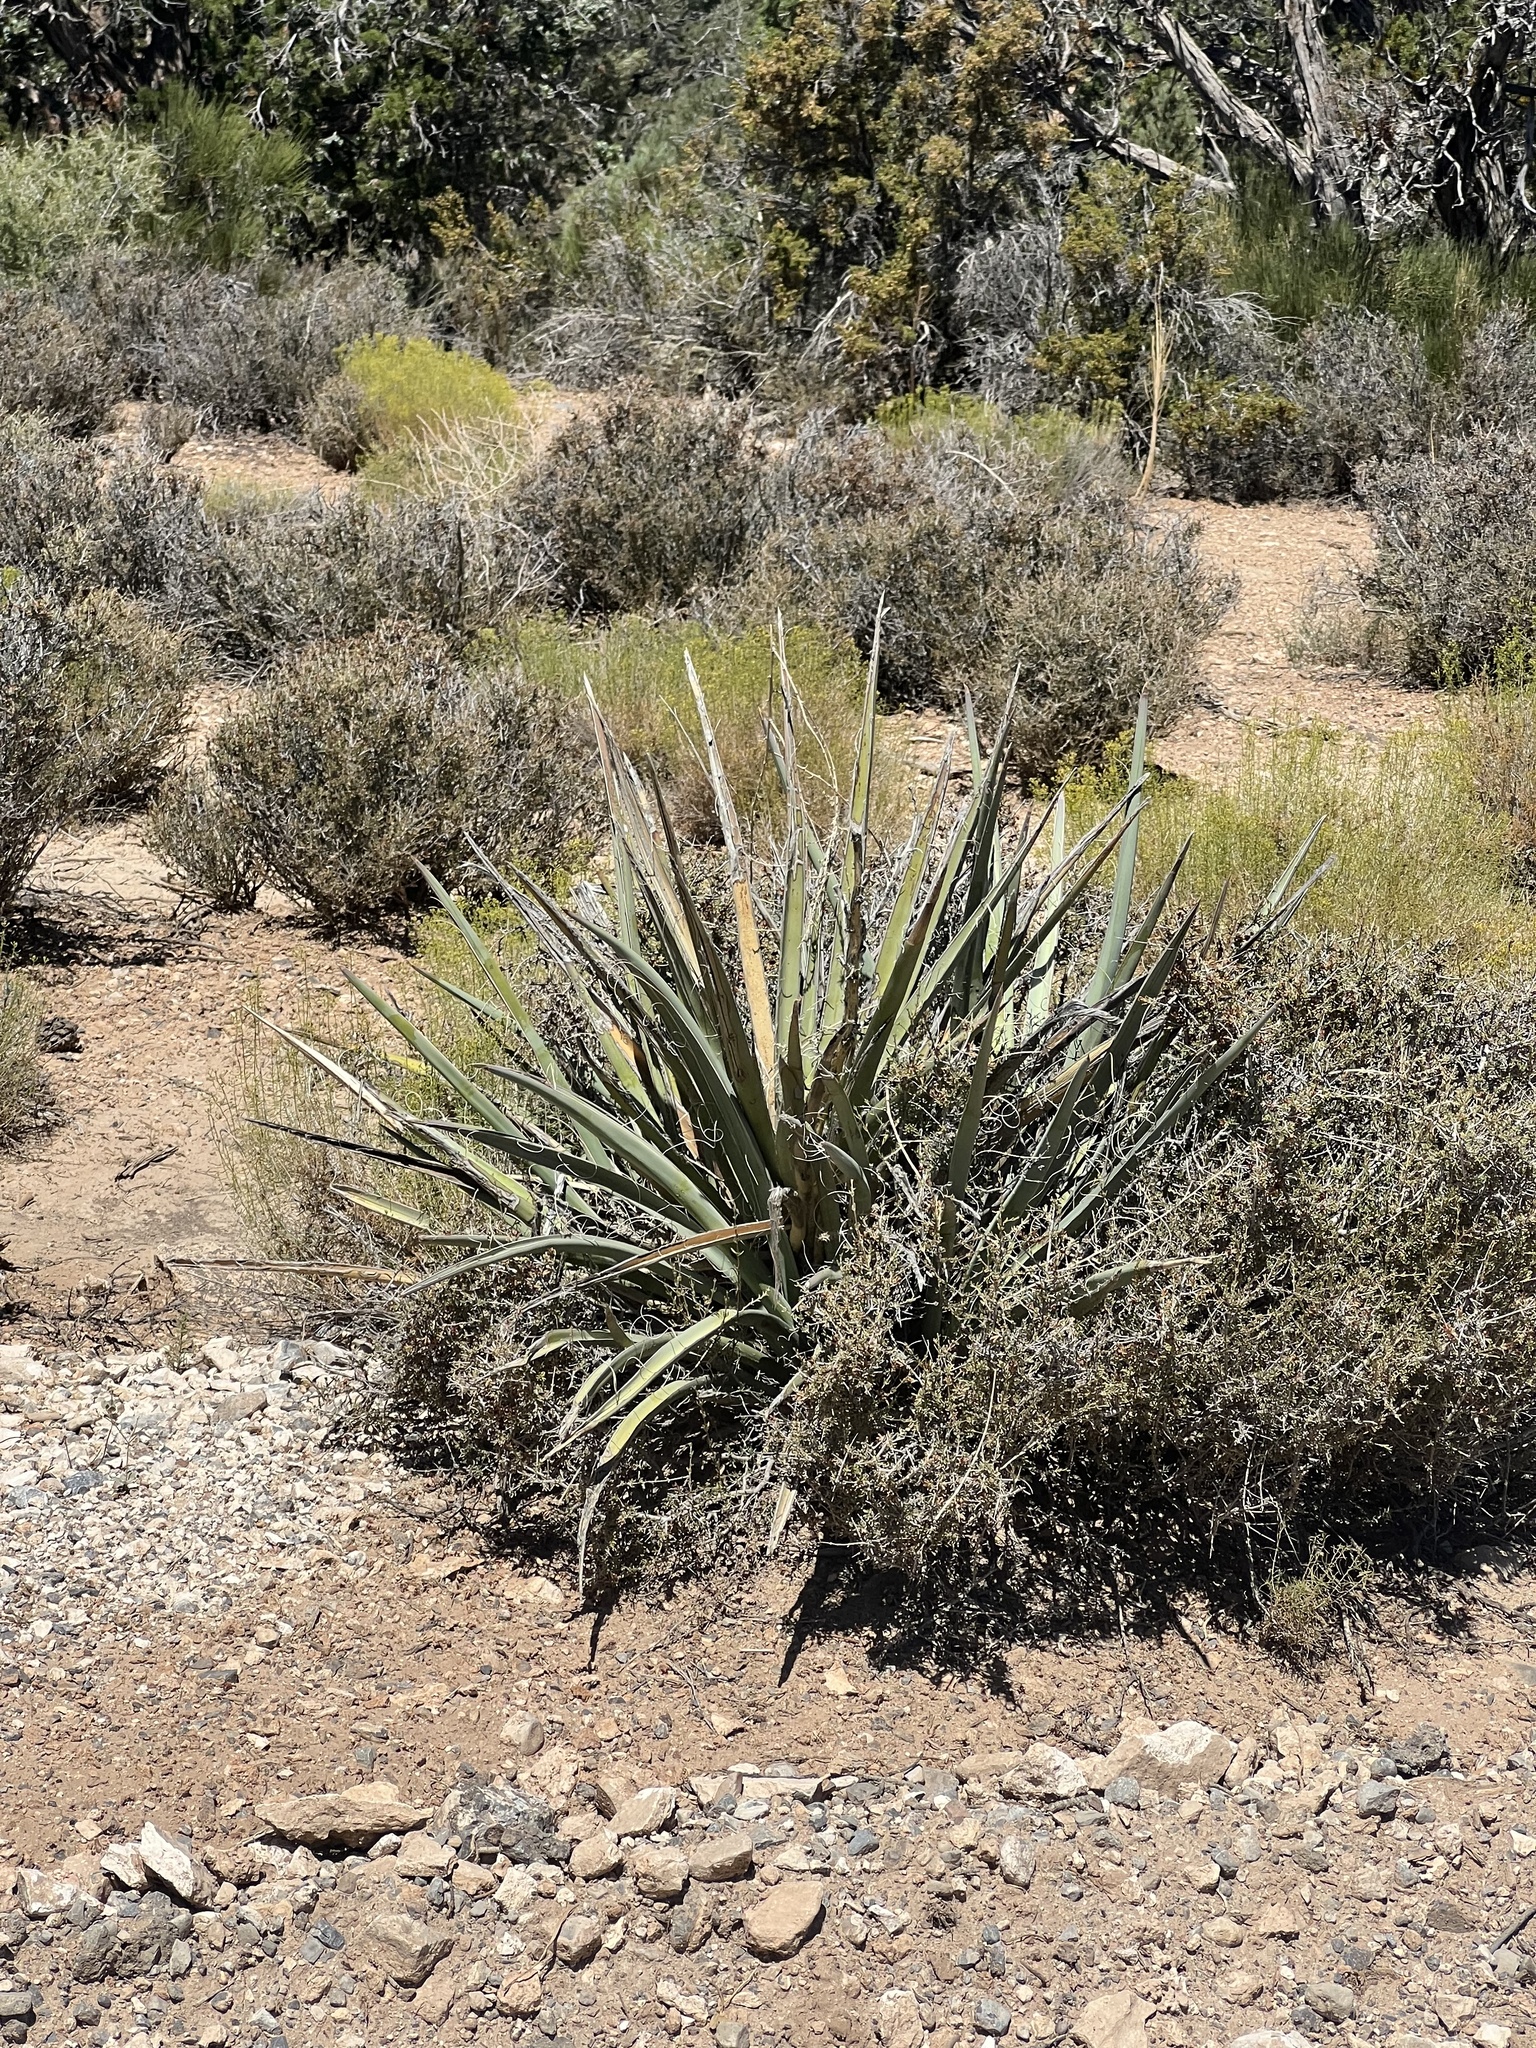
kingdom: Plantae
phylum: Tracheophyta
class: Liliopsida
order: Asparagales
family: Asparagaceae
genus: Yucca
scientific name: Yucca baccata
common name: Banana yucca
